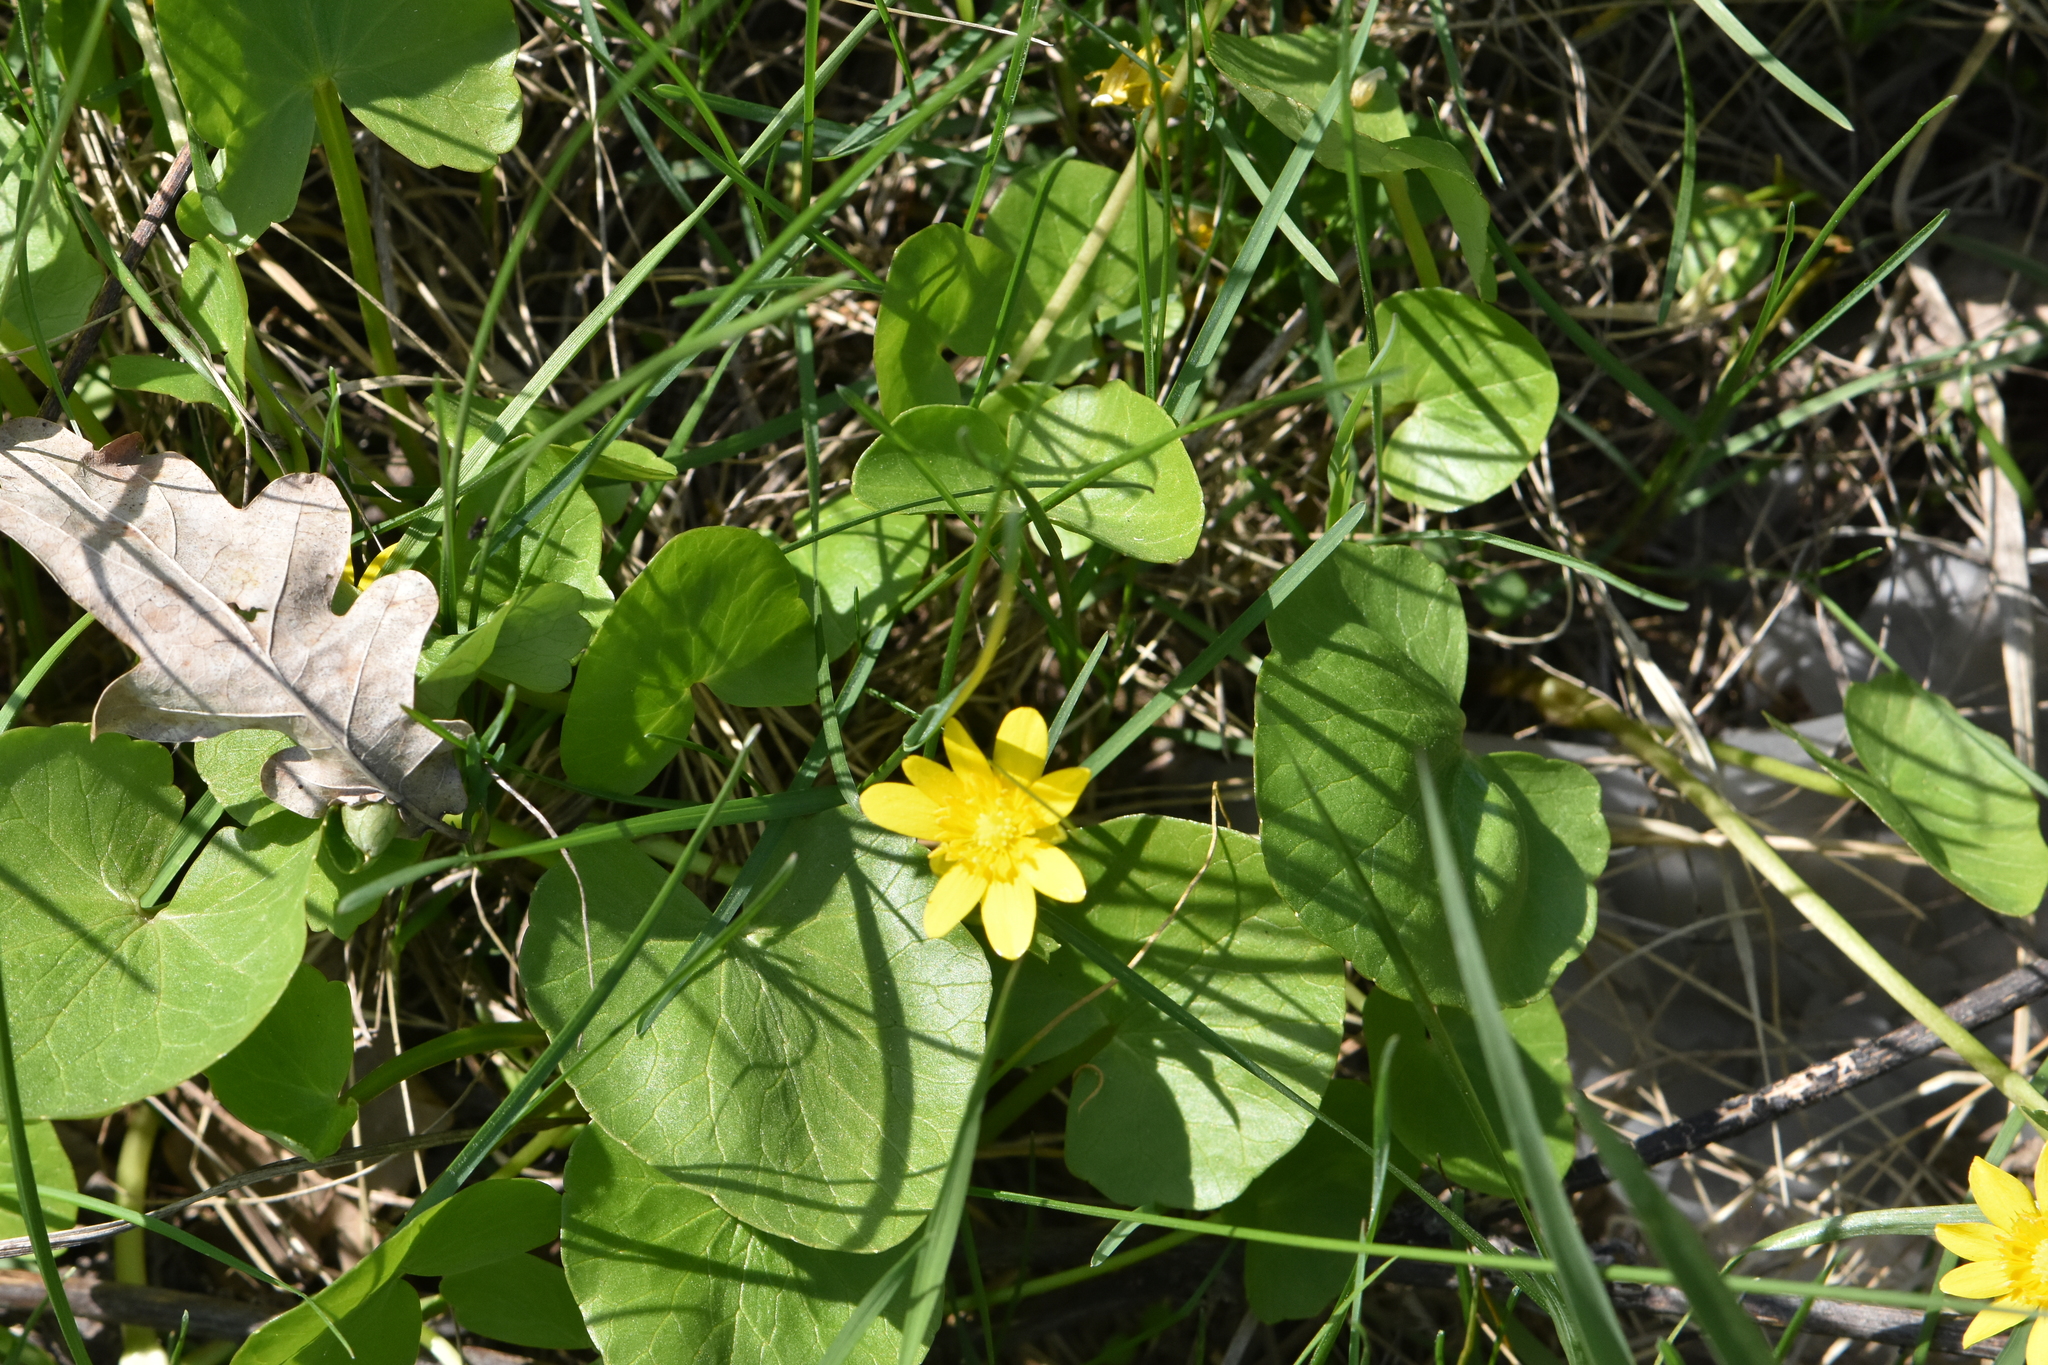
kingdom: Plantae
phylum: Tracheophyta
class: Magnoliopsida
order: Ranunculales
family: Ranunculaceae
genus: Ficaria
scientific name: Ficaria verna
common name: Lesser celandine
